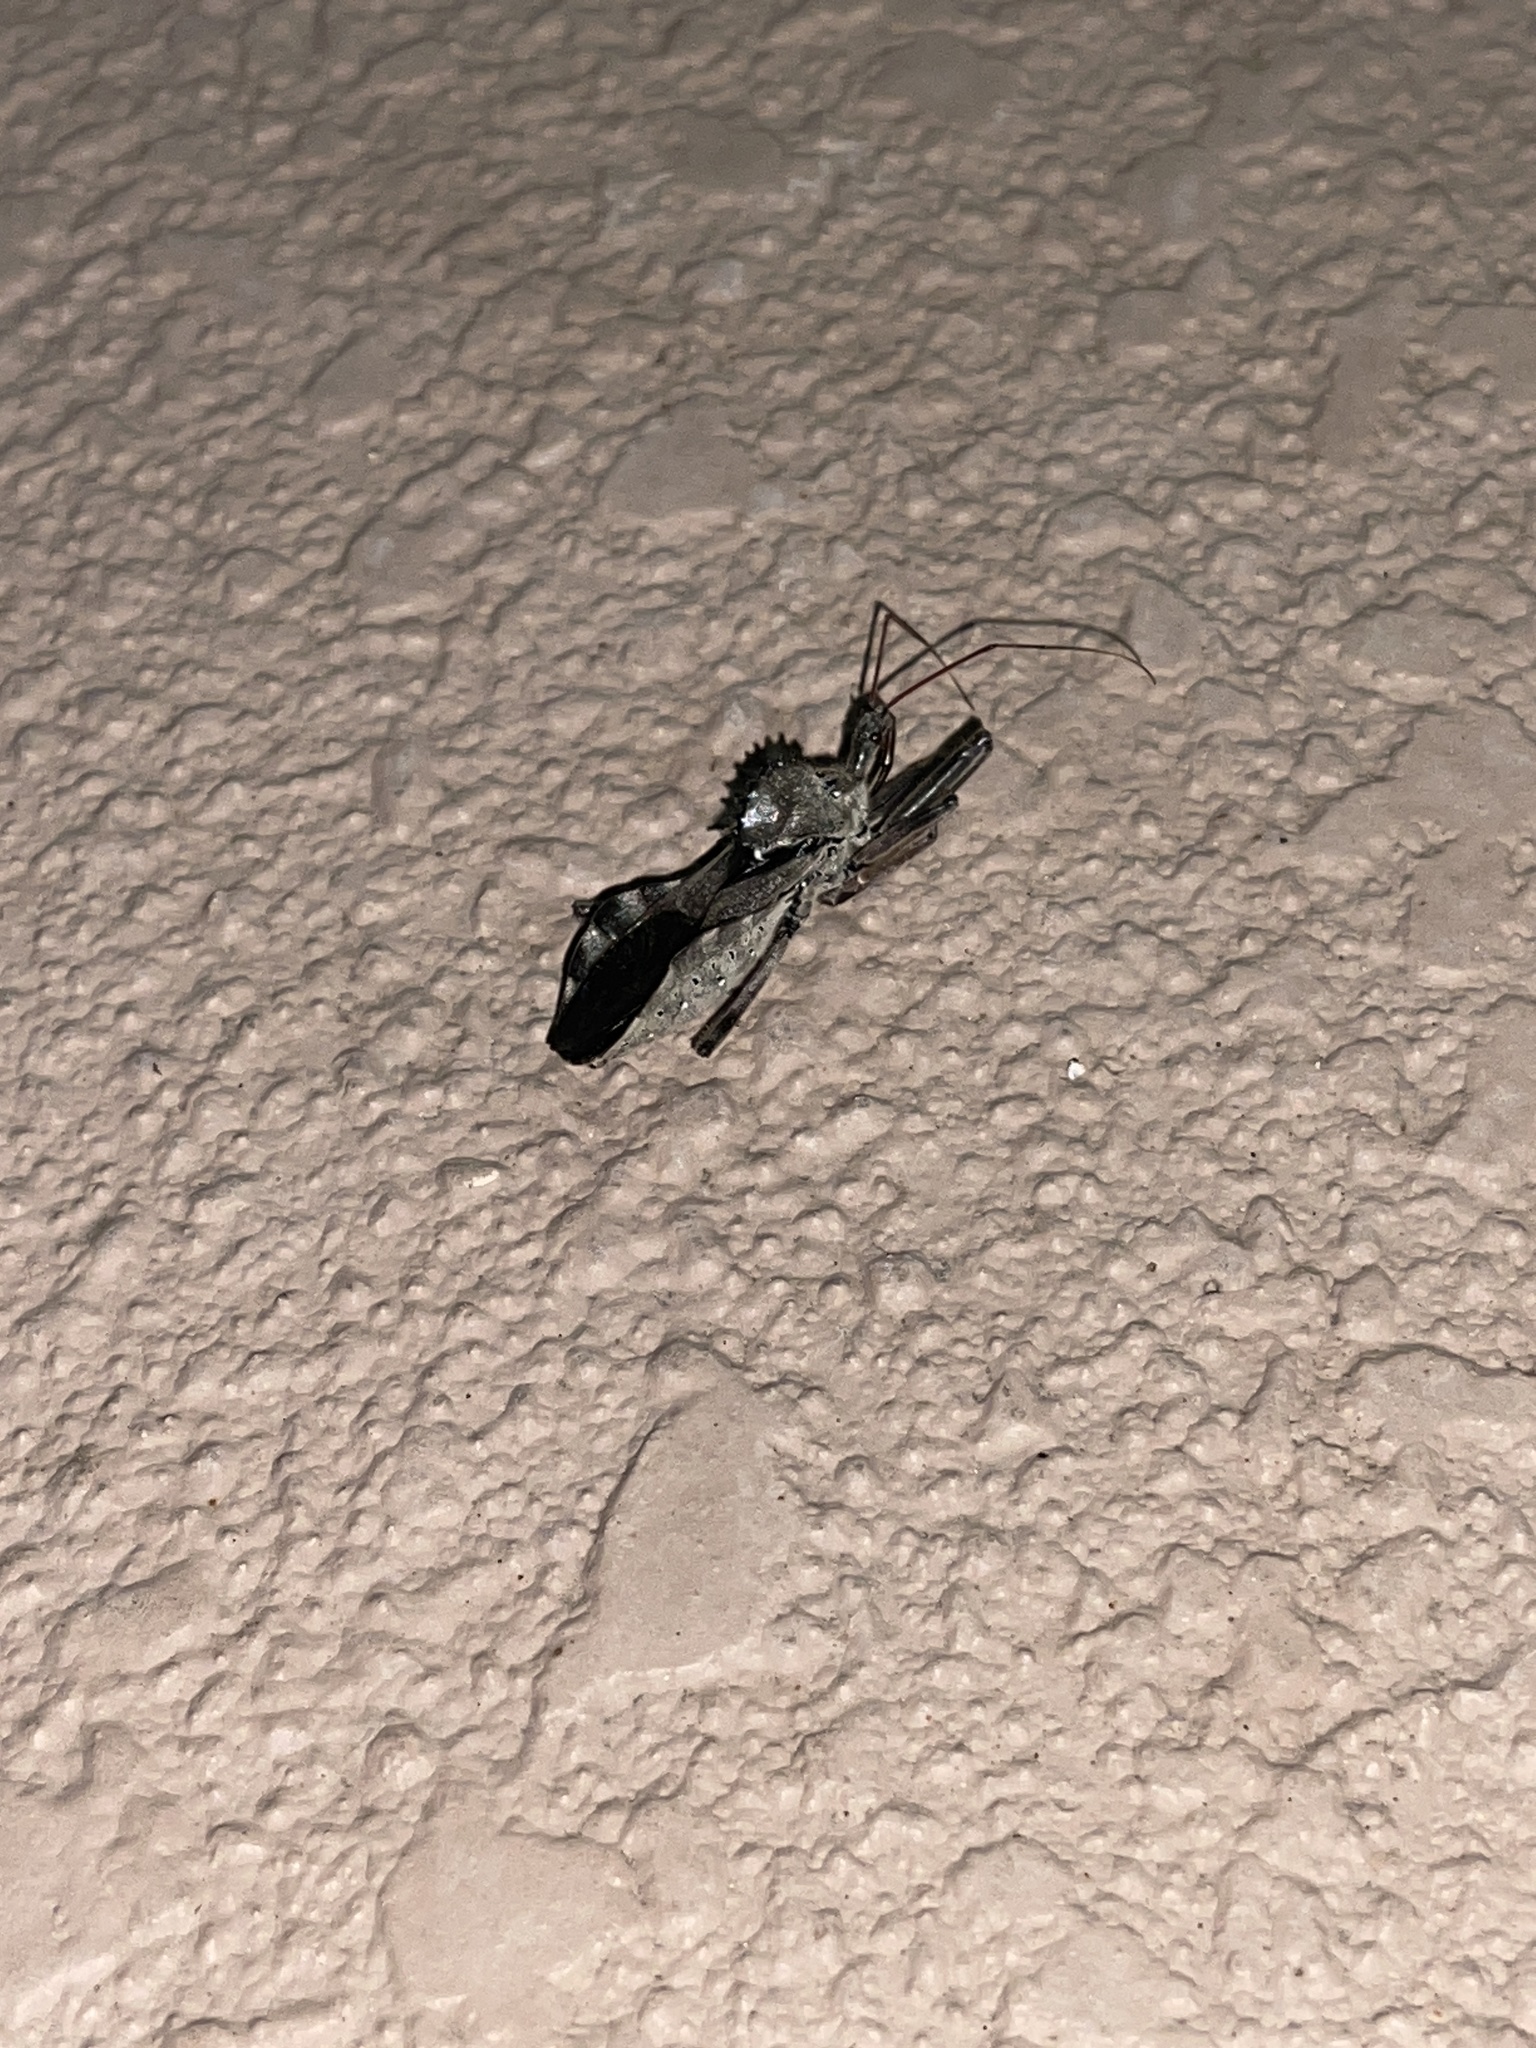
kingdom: Animalia
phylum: Arthropoda
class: Insecta
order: Hemiptera
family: Reduviidae
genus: Arilus
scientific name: Arilus cristatus
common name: North american wheel bug
